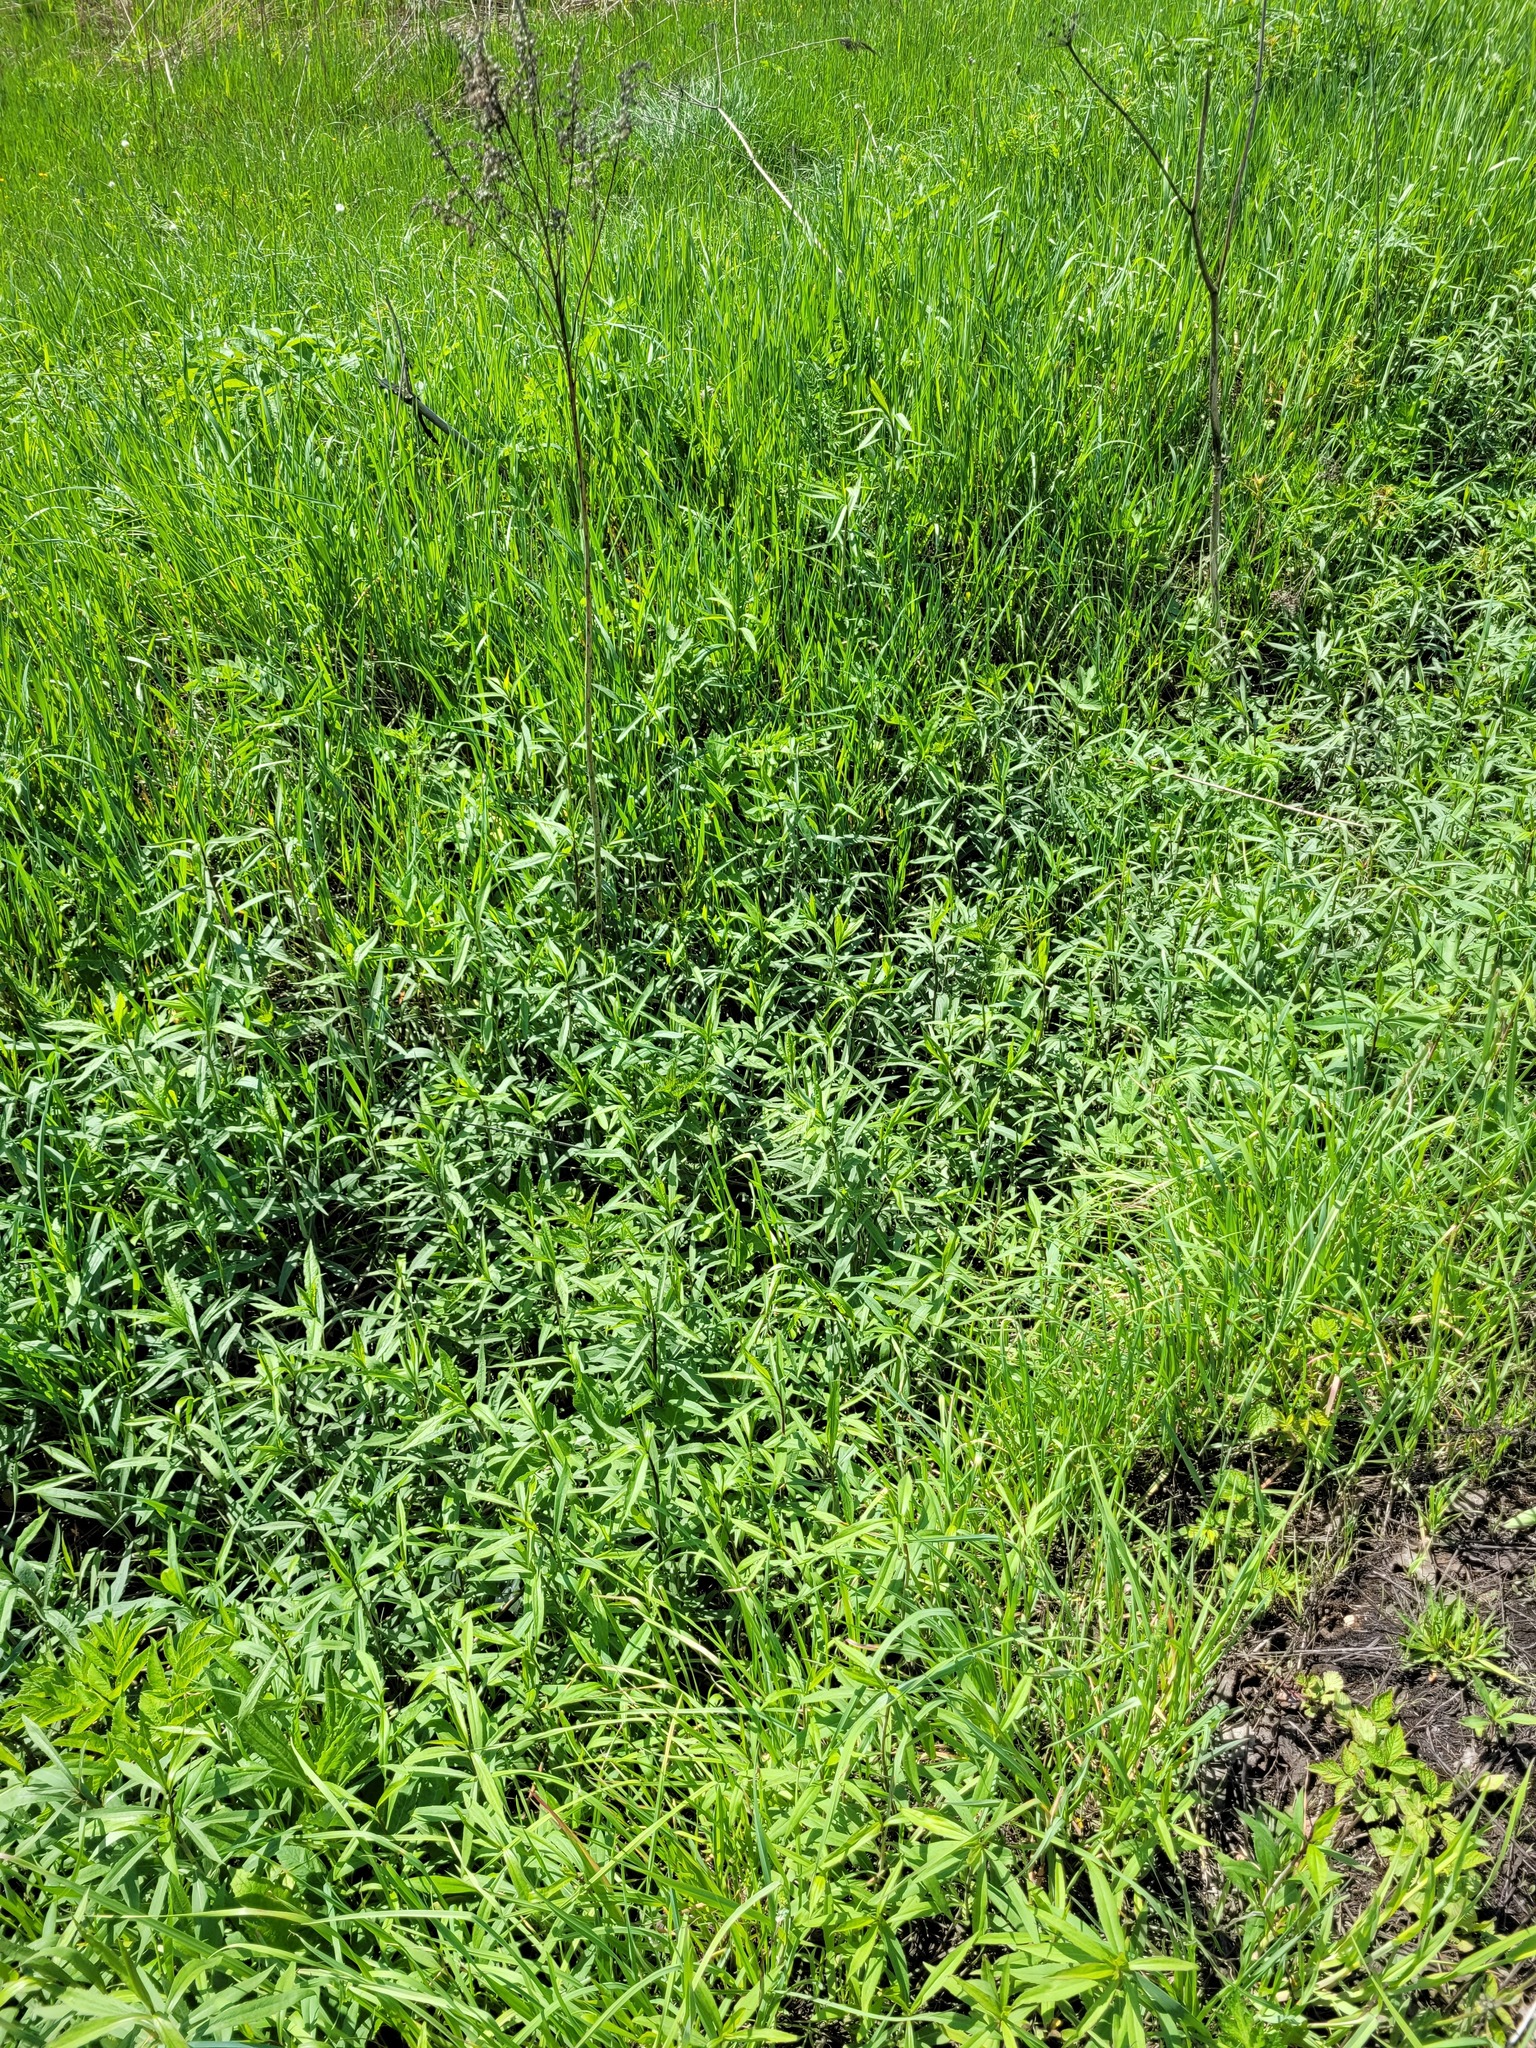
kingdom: Plantae
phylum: Tracheophyta
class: Magnoliopsida
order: Asterales
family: Asteraceae
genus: Solidago
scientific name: Solidago gigantea
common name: Giant goldenrod
